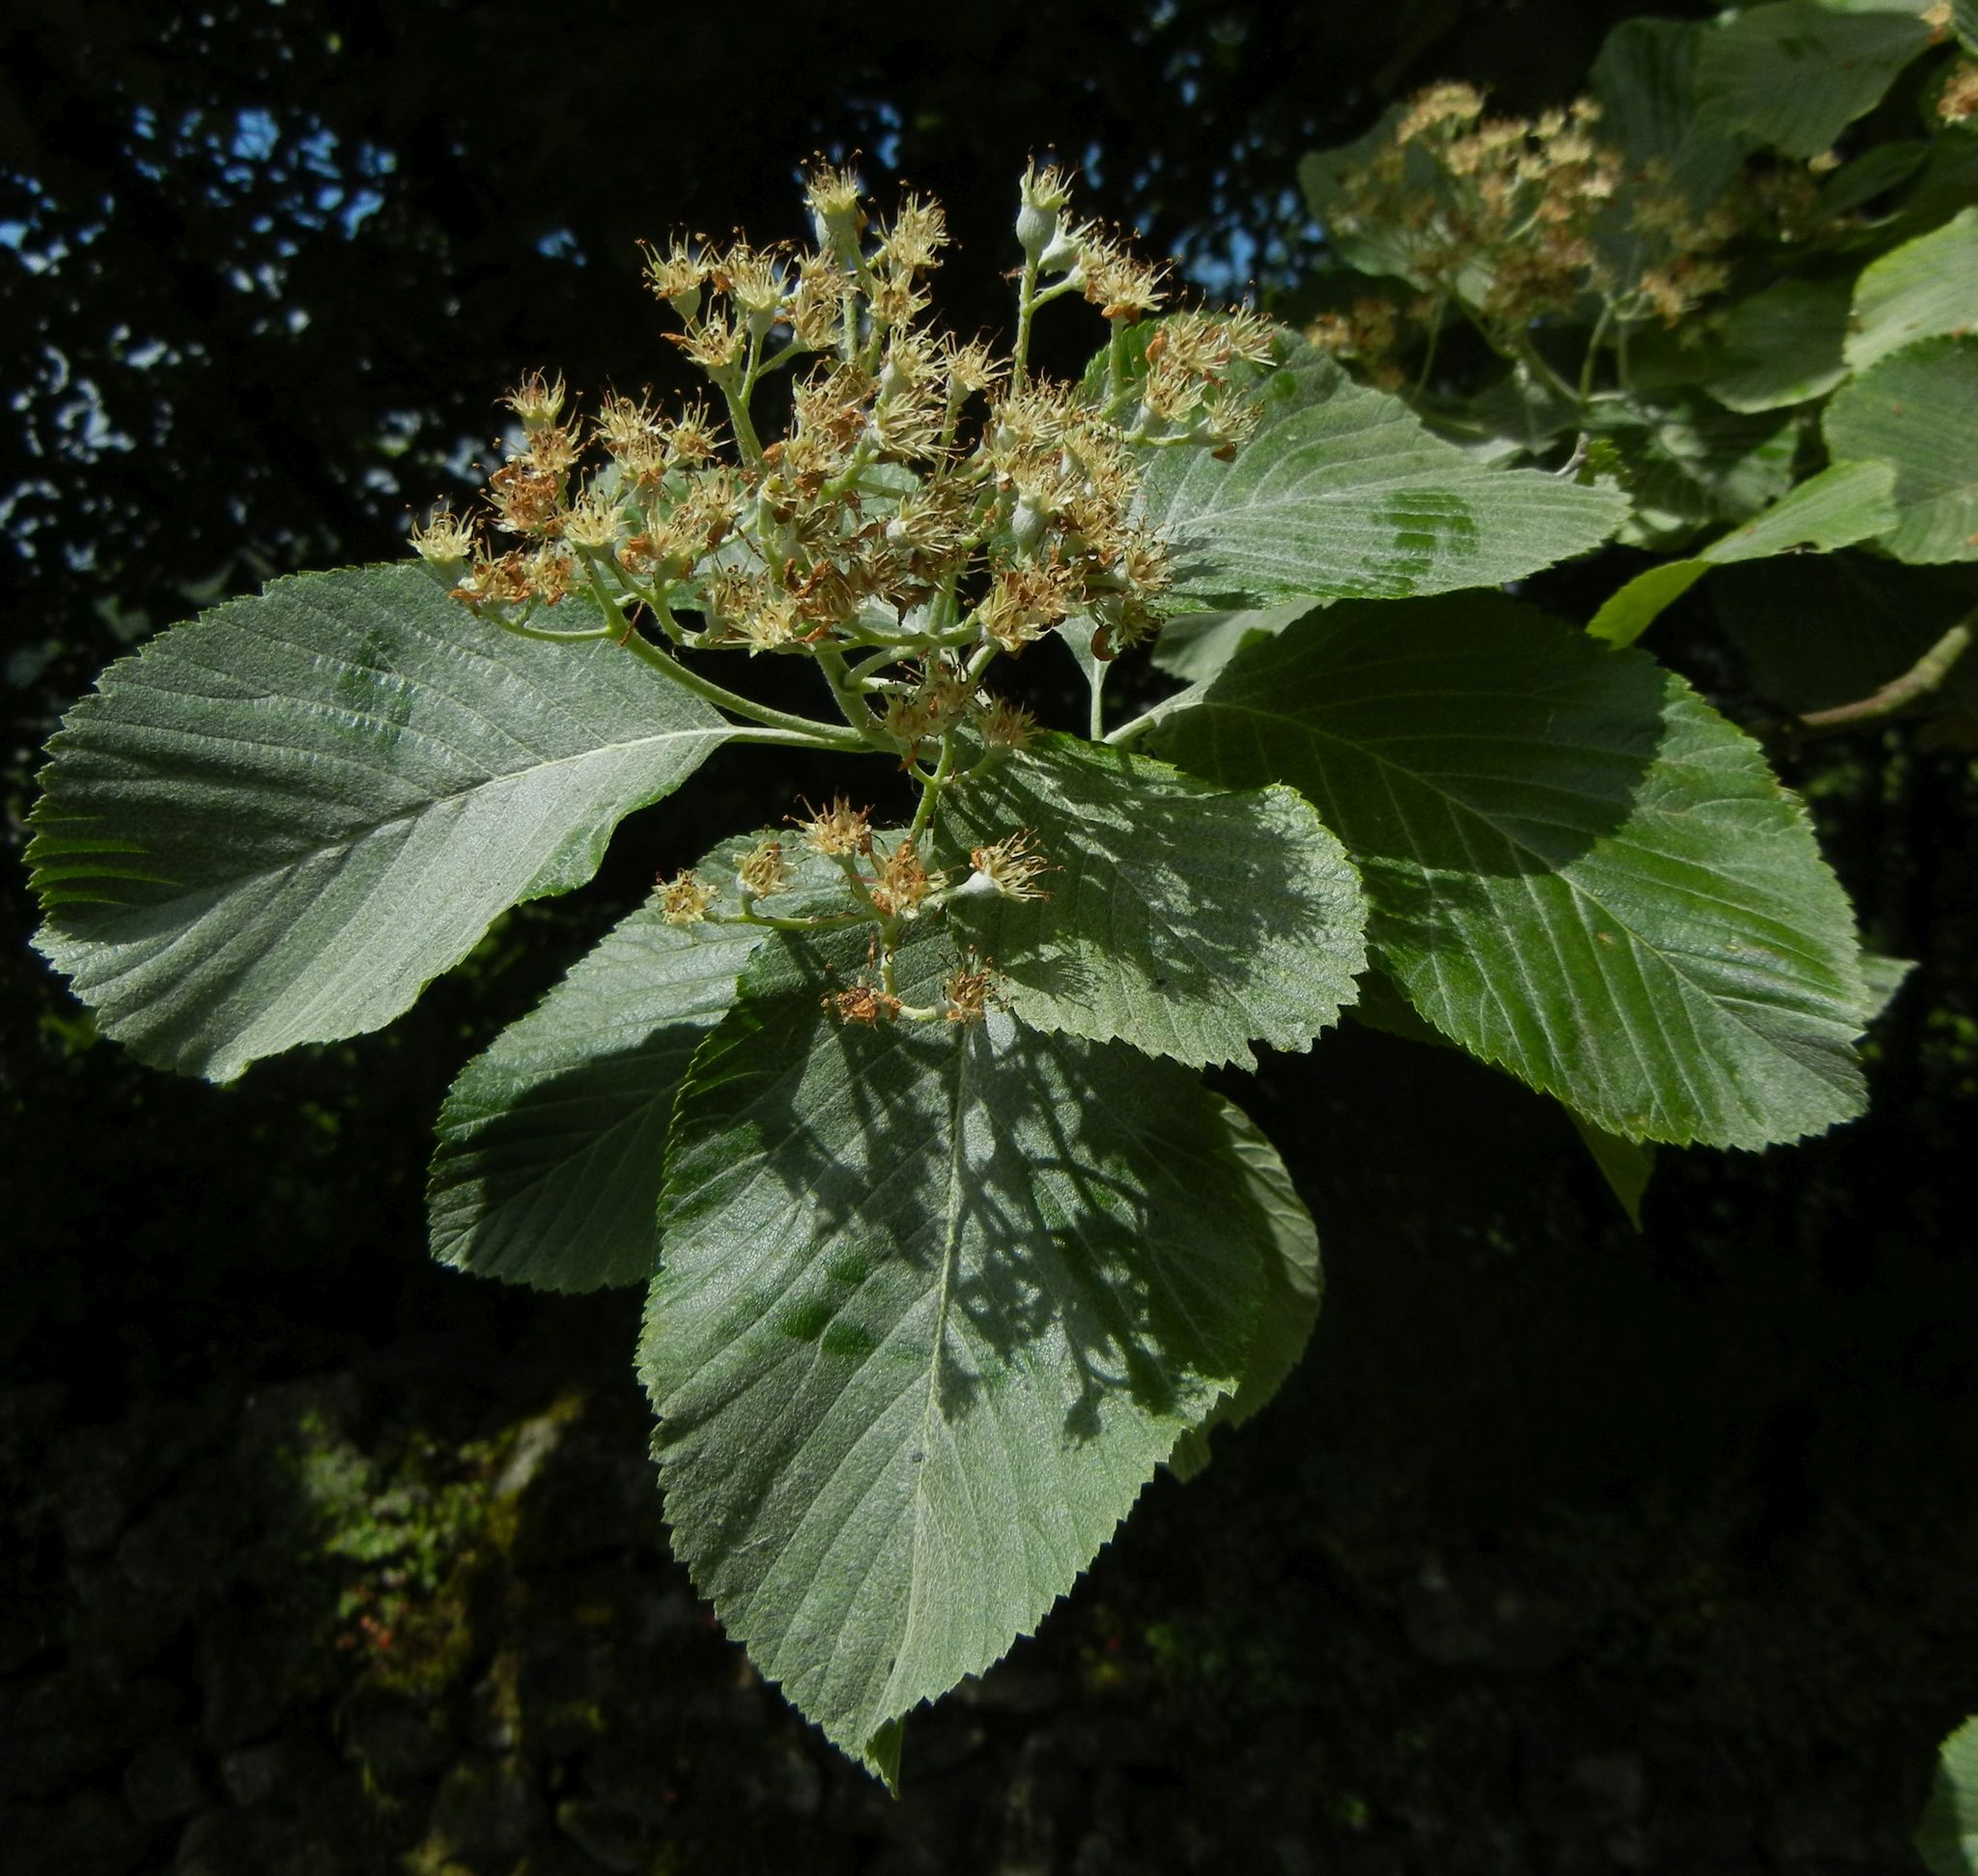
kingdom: Plantae
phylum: Tracheophyta
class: Magnoliopsida
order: Rosales
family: Rosaceae
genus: Aria
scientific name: Aria edulis
